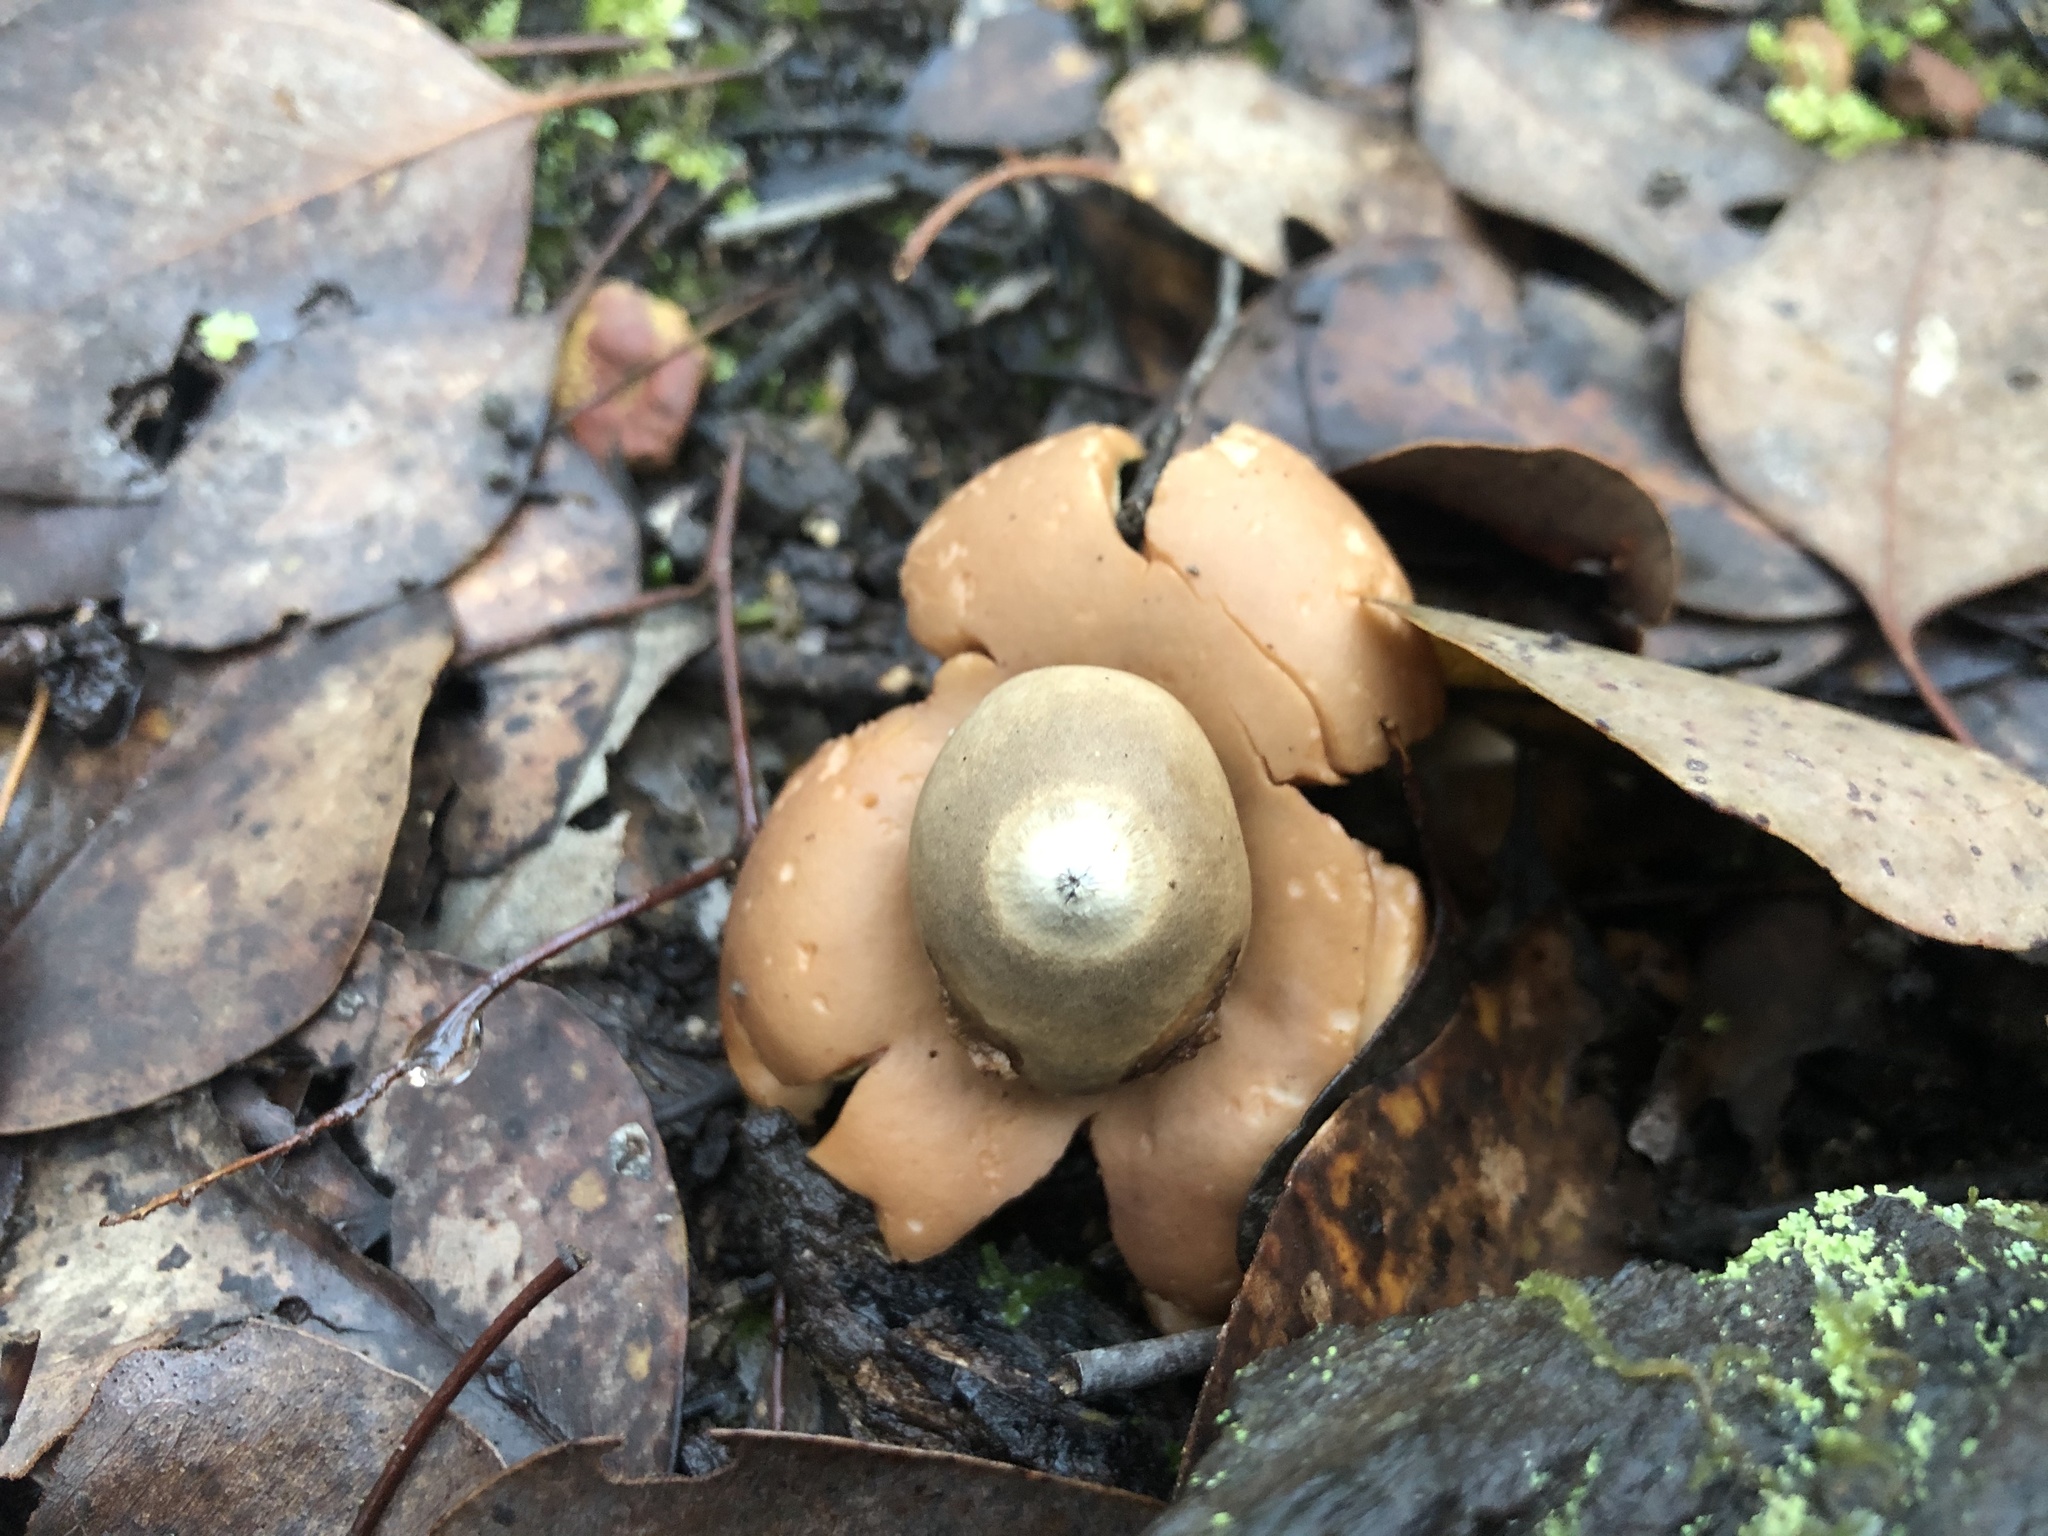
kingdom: Fungi
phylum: Basidiomycota
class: Agaricomycetes
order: Geastrales
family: Geastraceae
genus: Geastrum
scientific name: Geastrum triplex
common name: Collared earthstar
